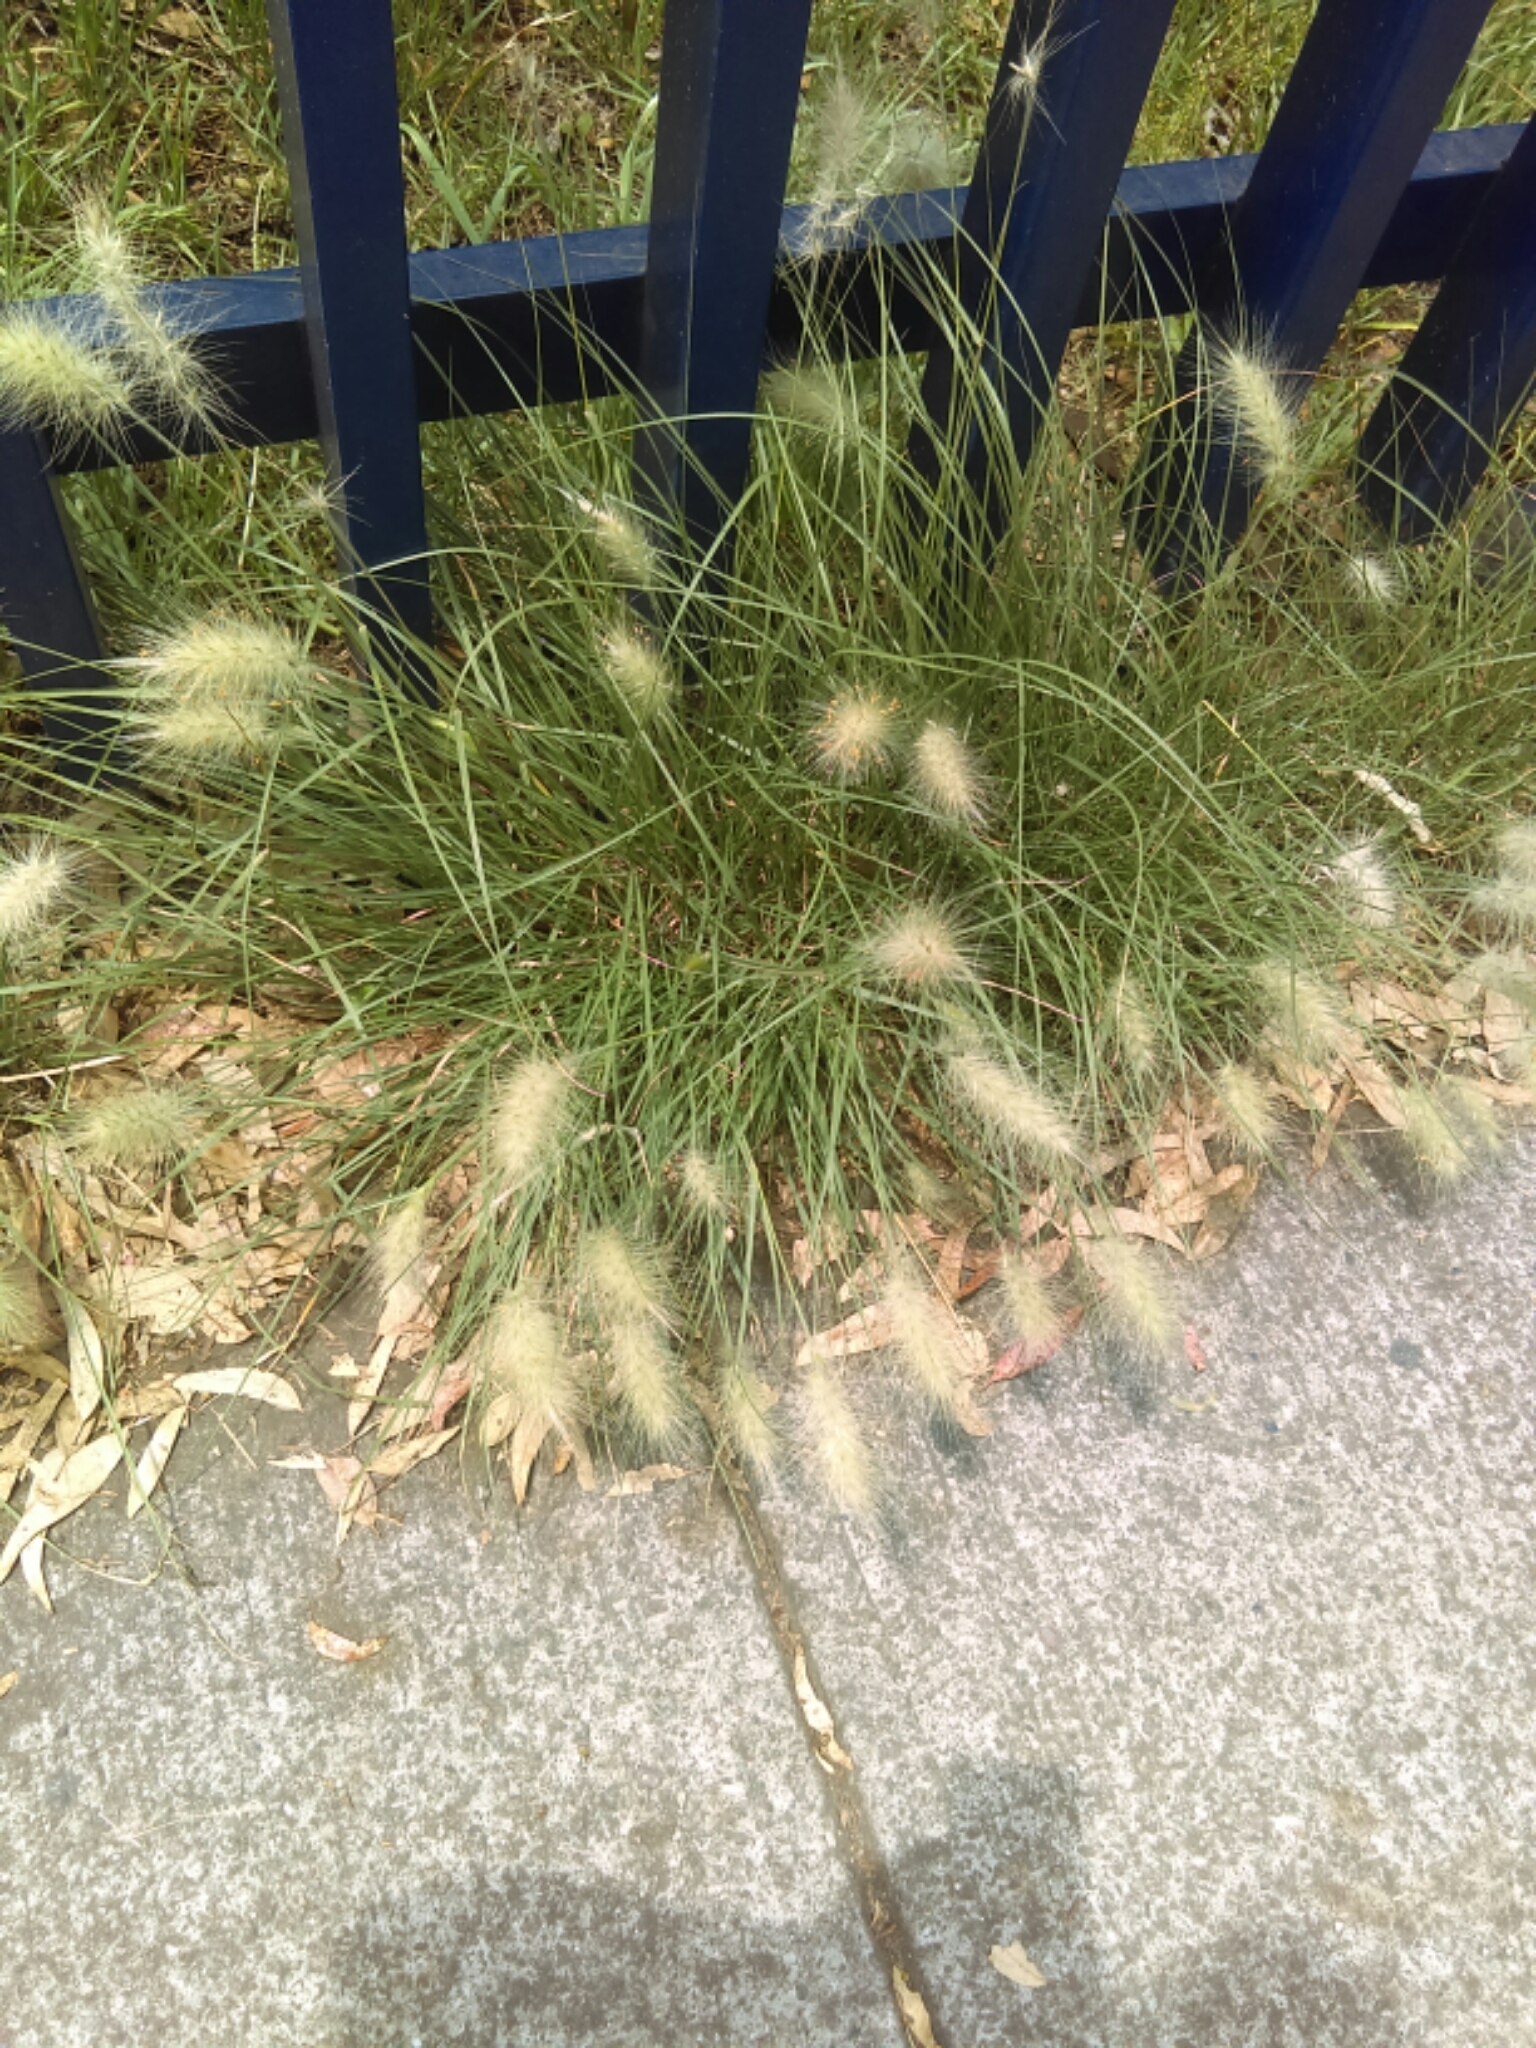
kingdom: Plantae
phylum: Tracheophyta
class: Liliopsida
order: Poales
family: Poaceae
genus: Cenchrus
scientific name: Cenchrus longisetus
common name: Feathertop
